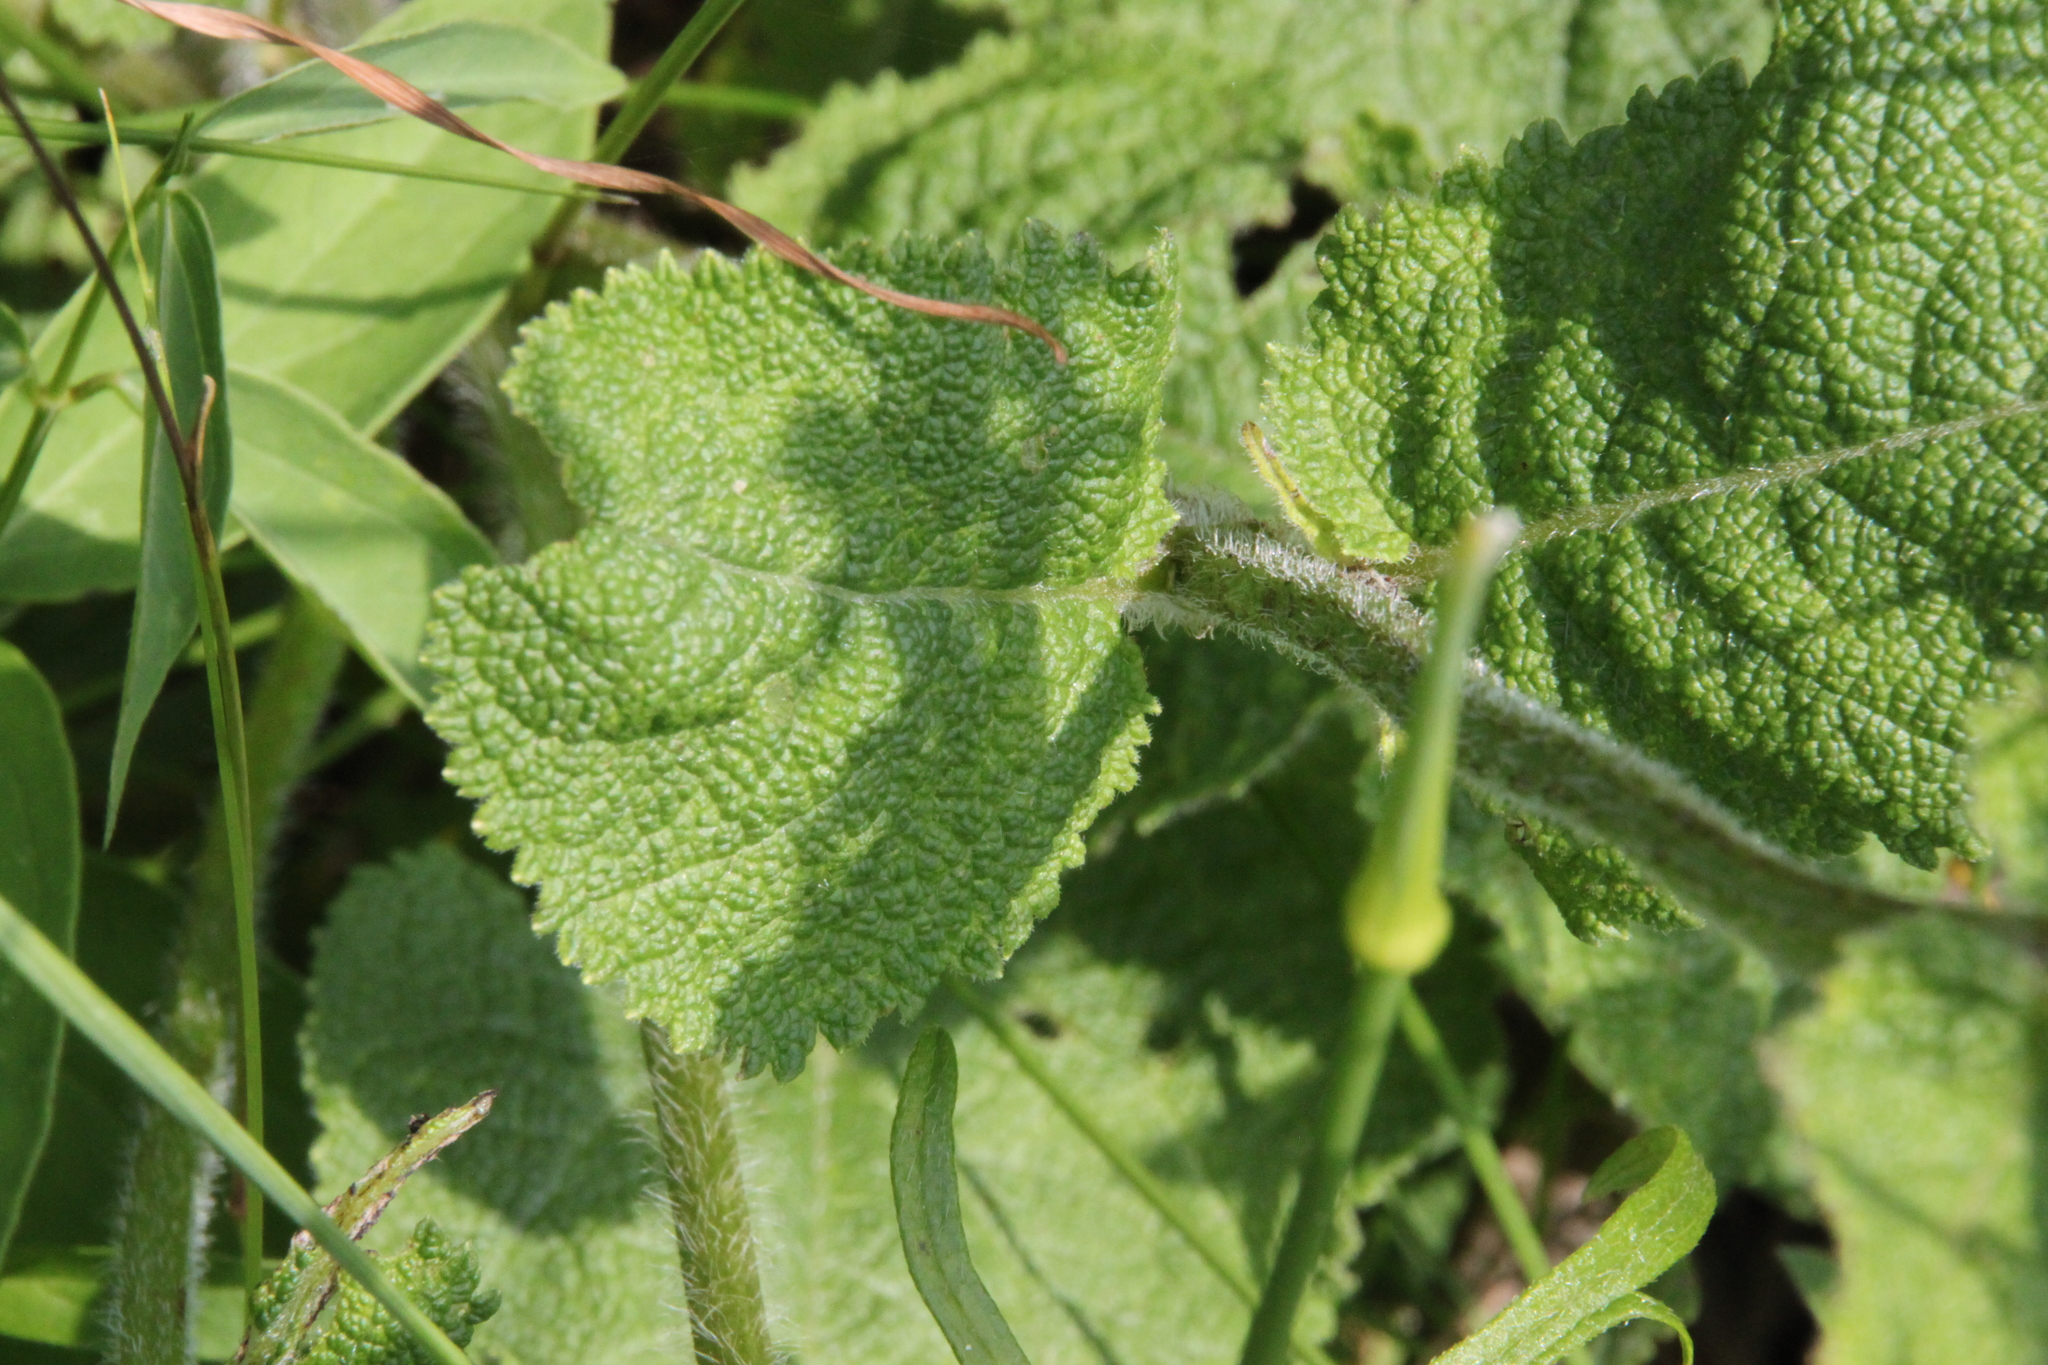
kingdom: Plantae
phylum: Tracheophyta
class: Magnoliopsida
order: Lamiales
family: Lamiaceae
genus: Salvia
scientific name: Salvia pratensis
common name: Meadow sage
